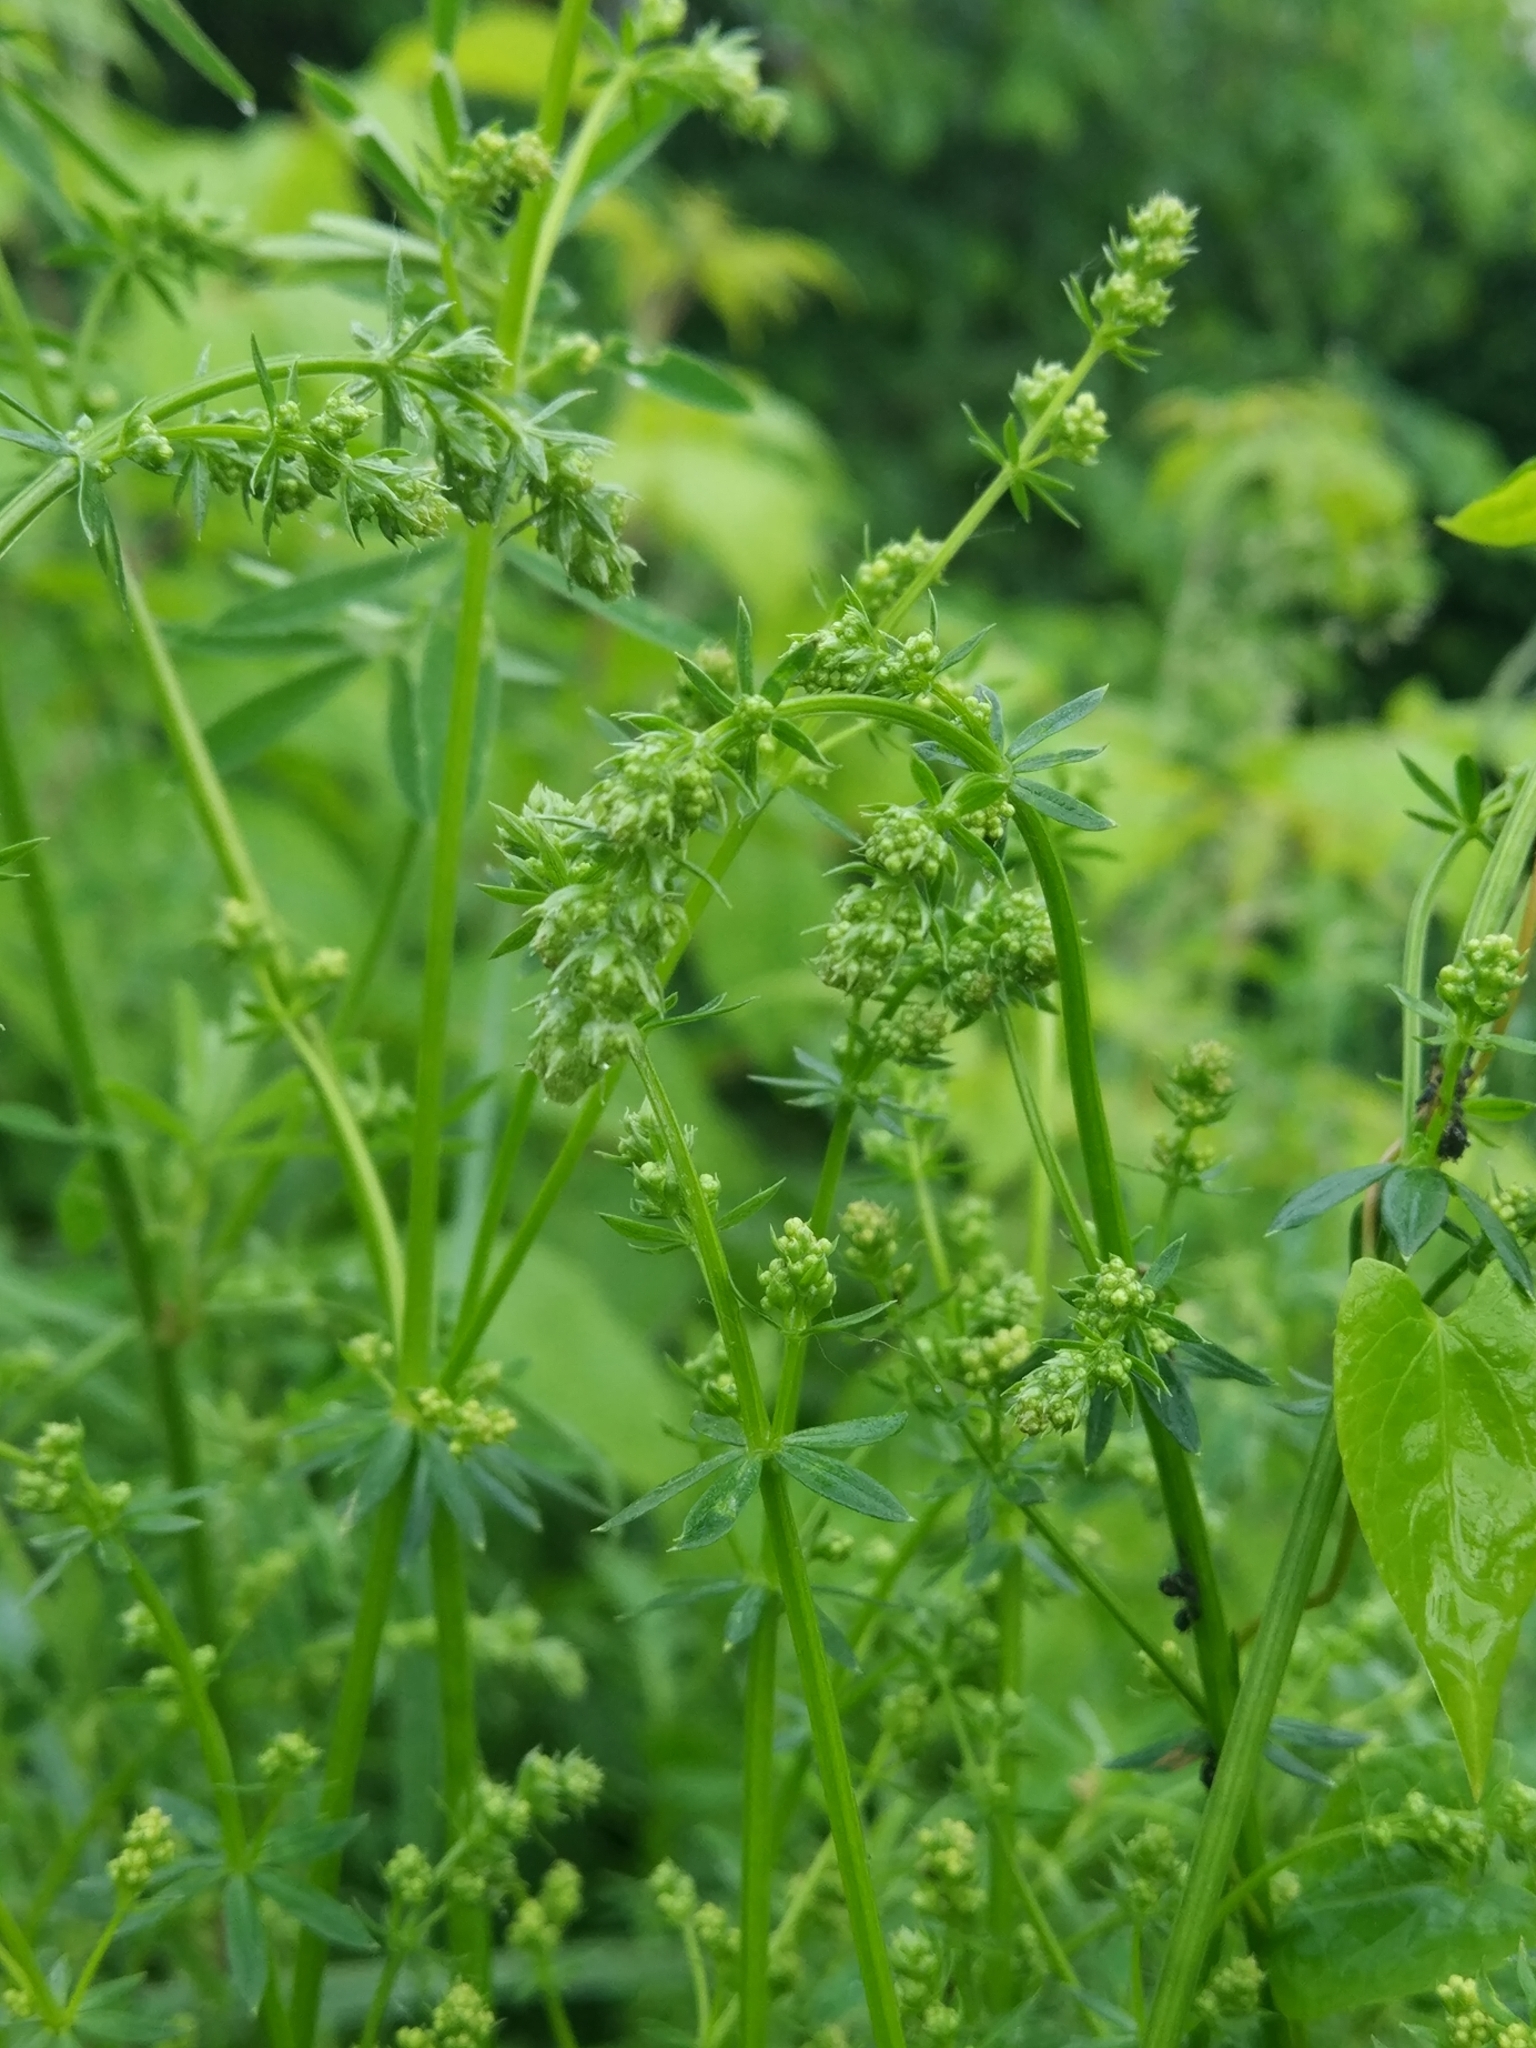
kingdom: Plantae
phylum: Tracheophyta
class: Magnoliopsida
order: Gentianales
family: Rubiaceae
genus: Galium
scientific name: Galium mollugo
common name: Hedge bedstraw
